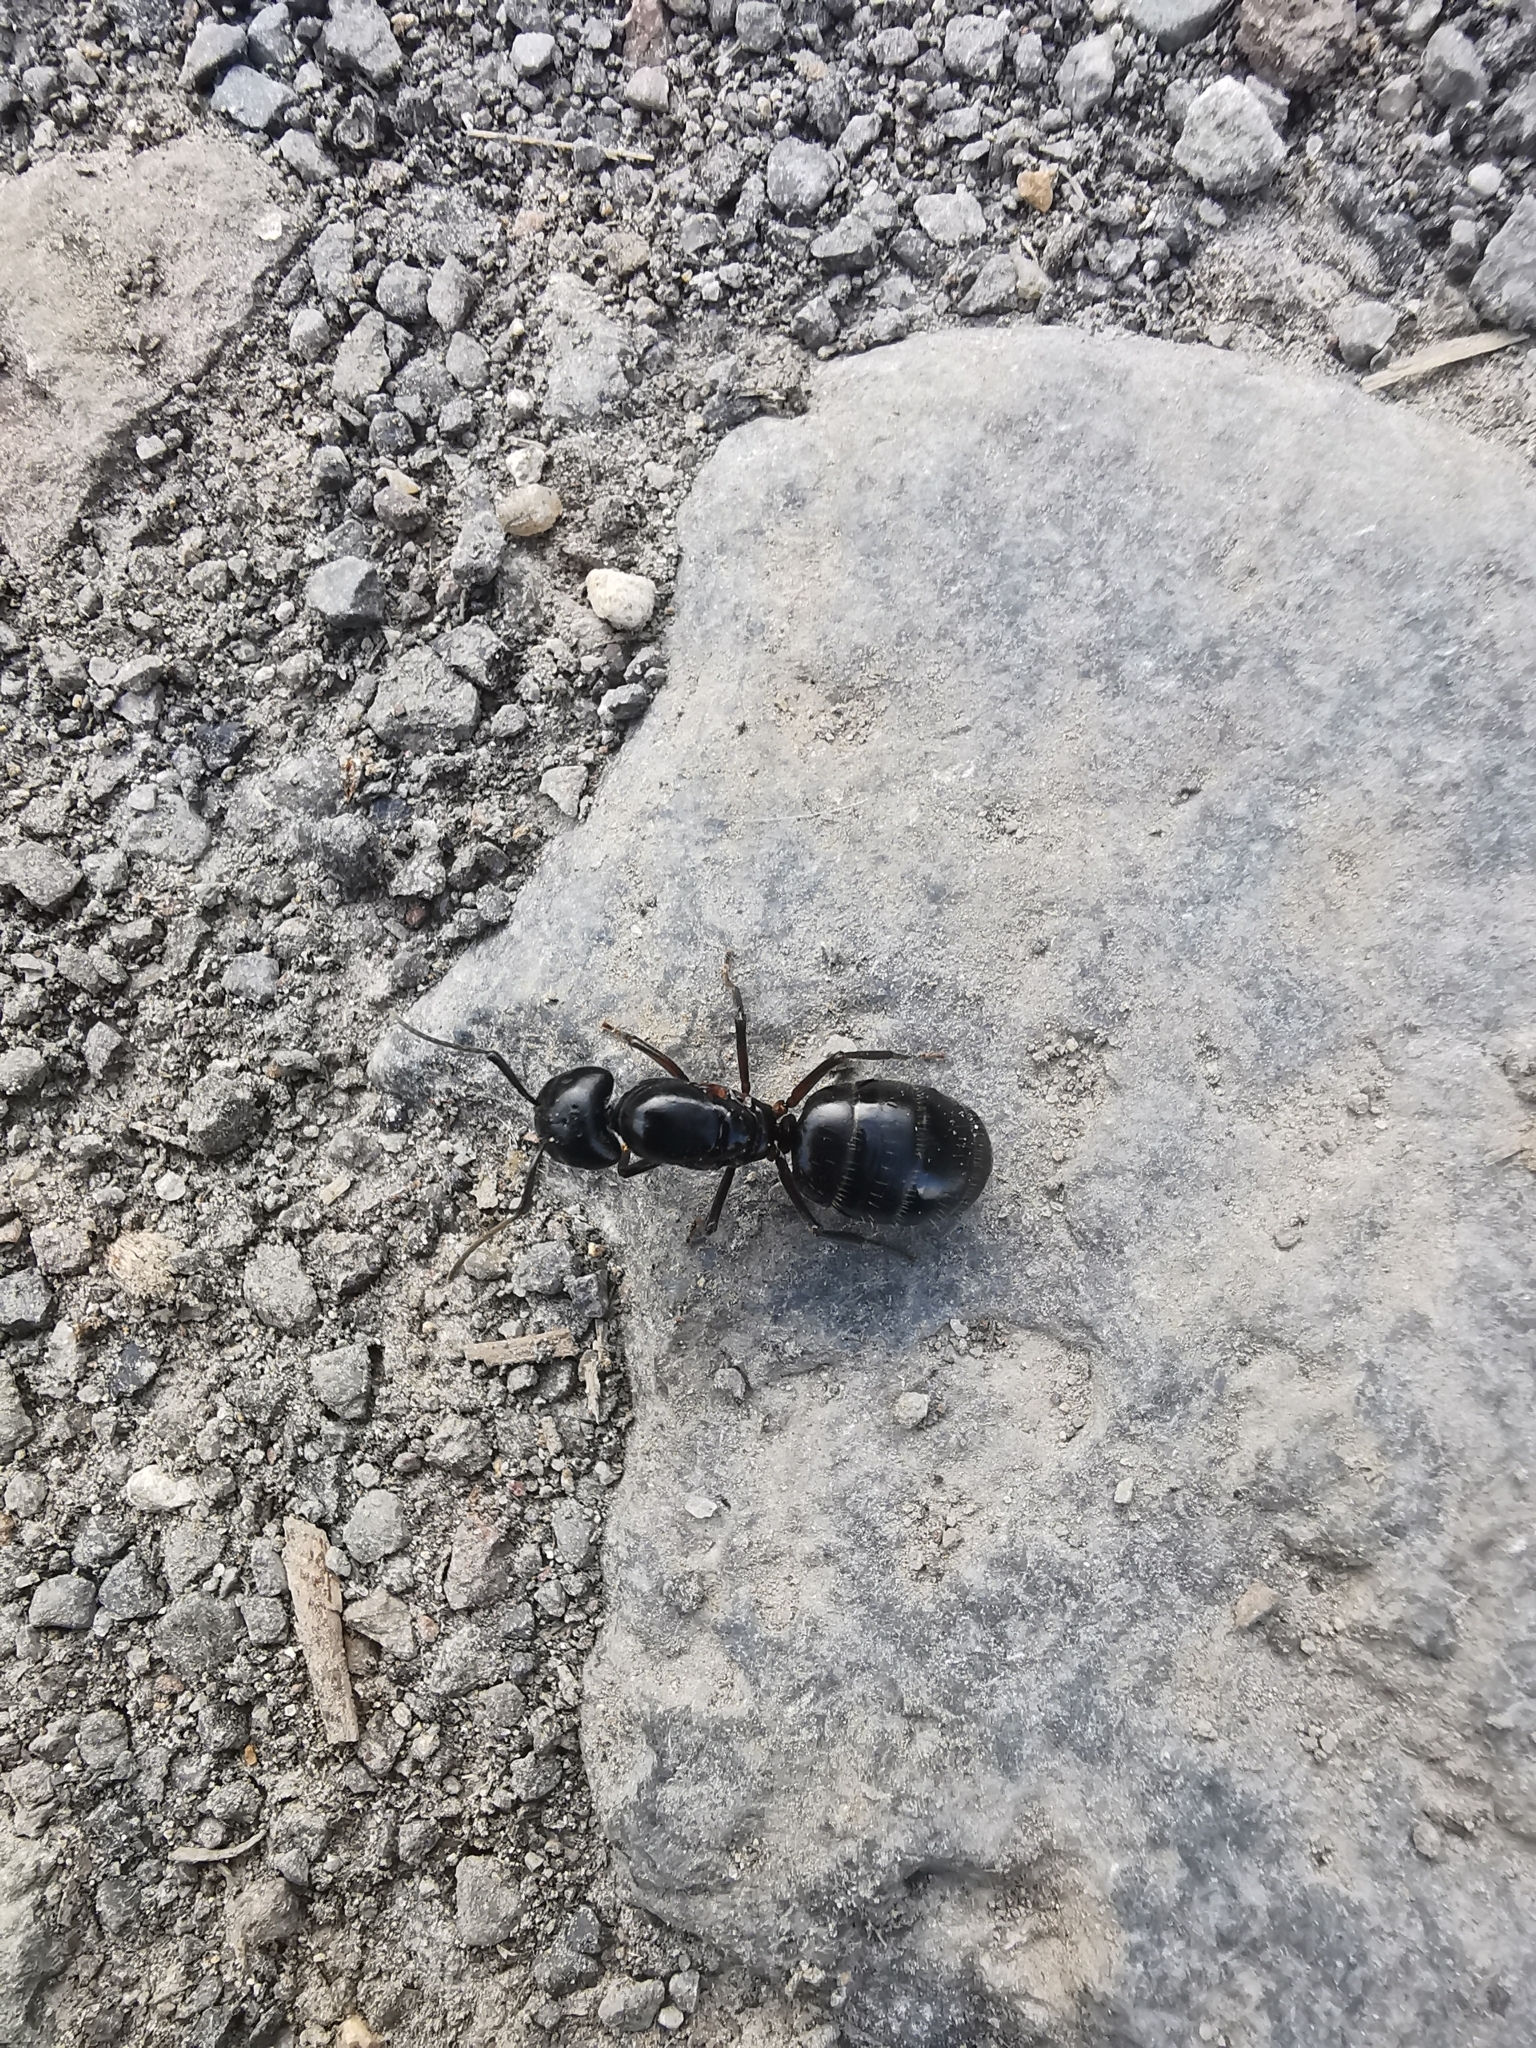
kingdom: Animalia
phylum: Arthropoda
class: Insecta
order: Hymenoptera
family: Formicidae
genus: Camponotus
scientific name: Camponotus herculeanus
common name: Hercules ant
